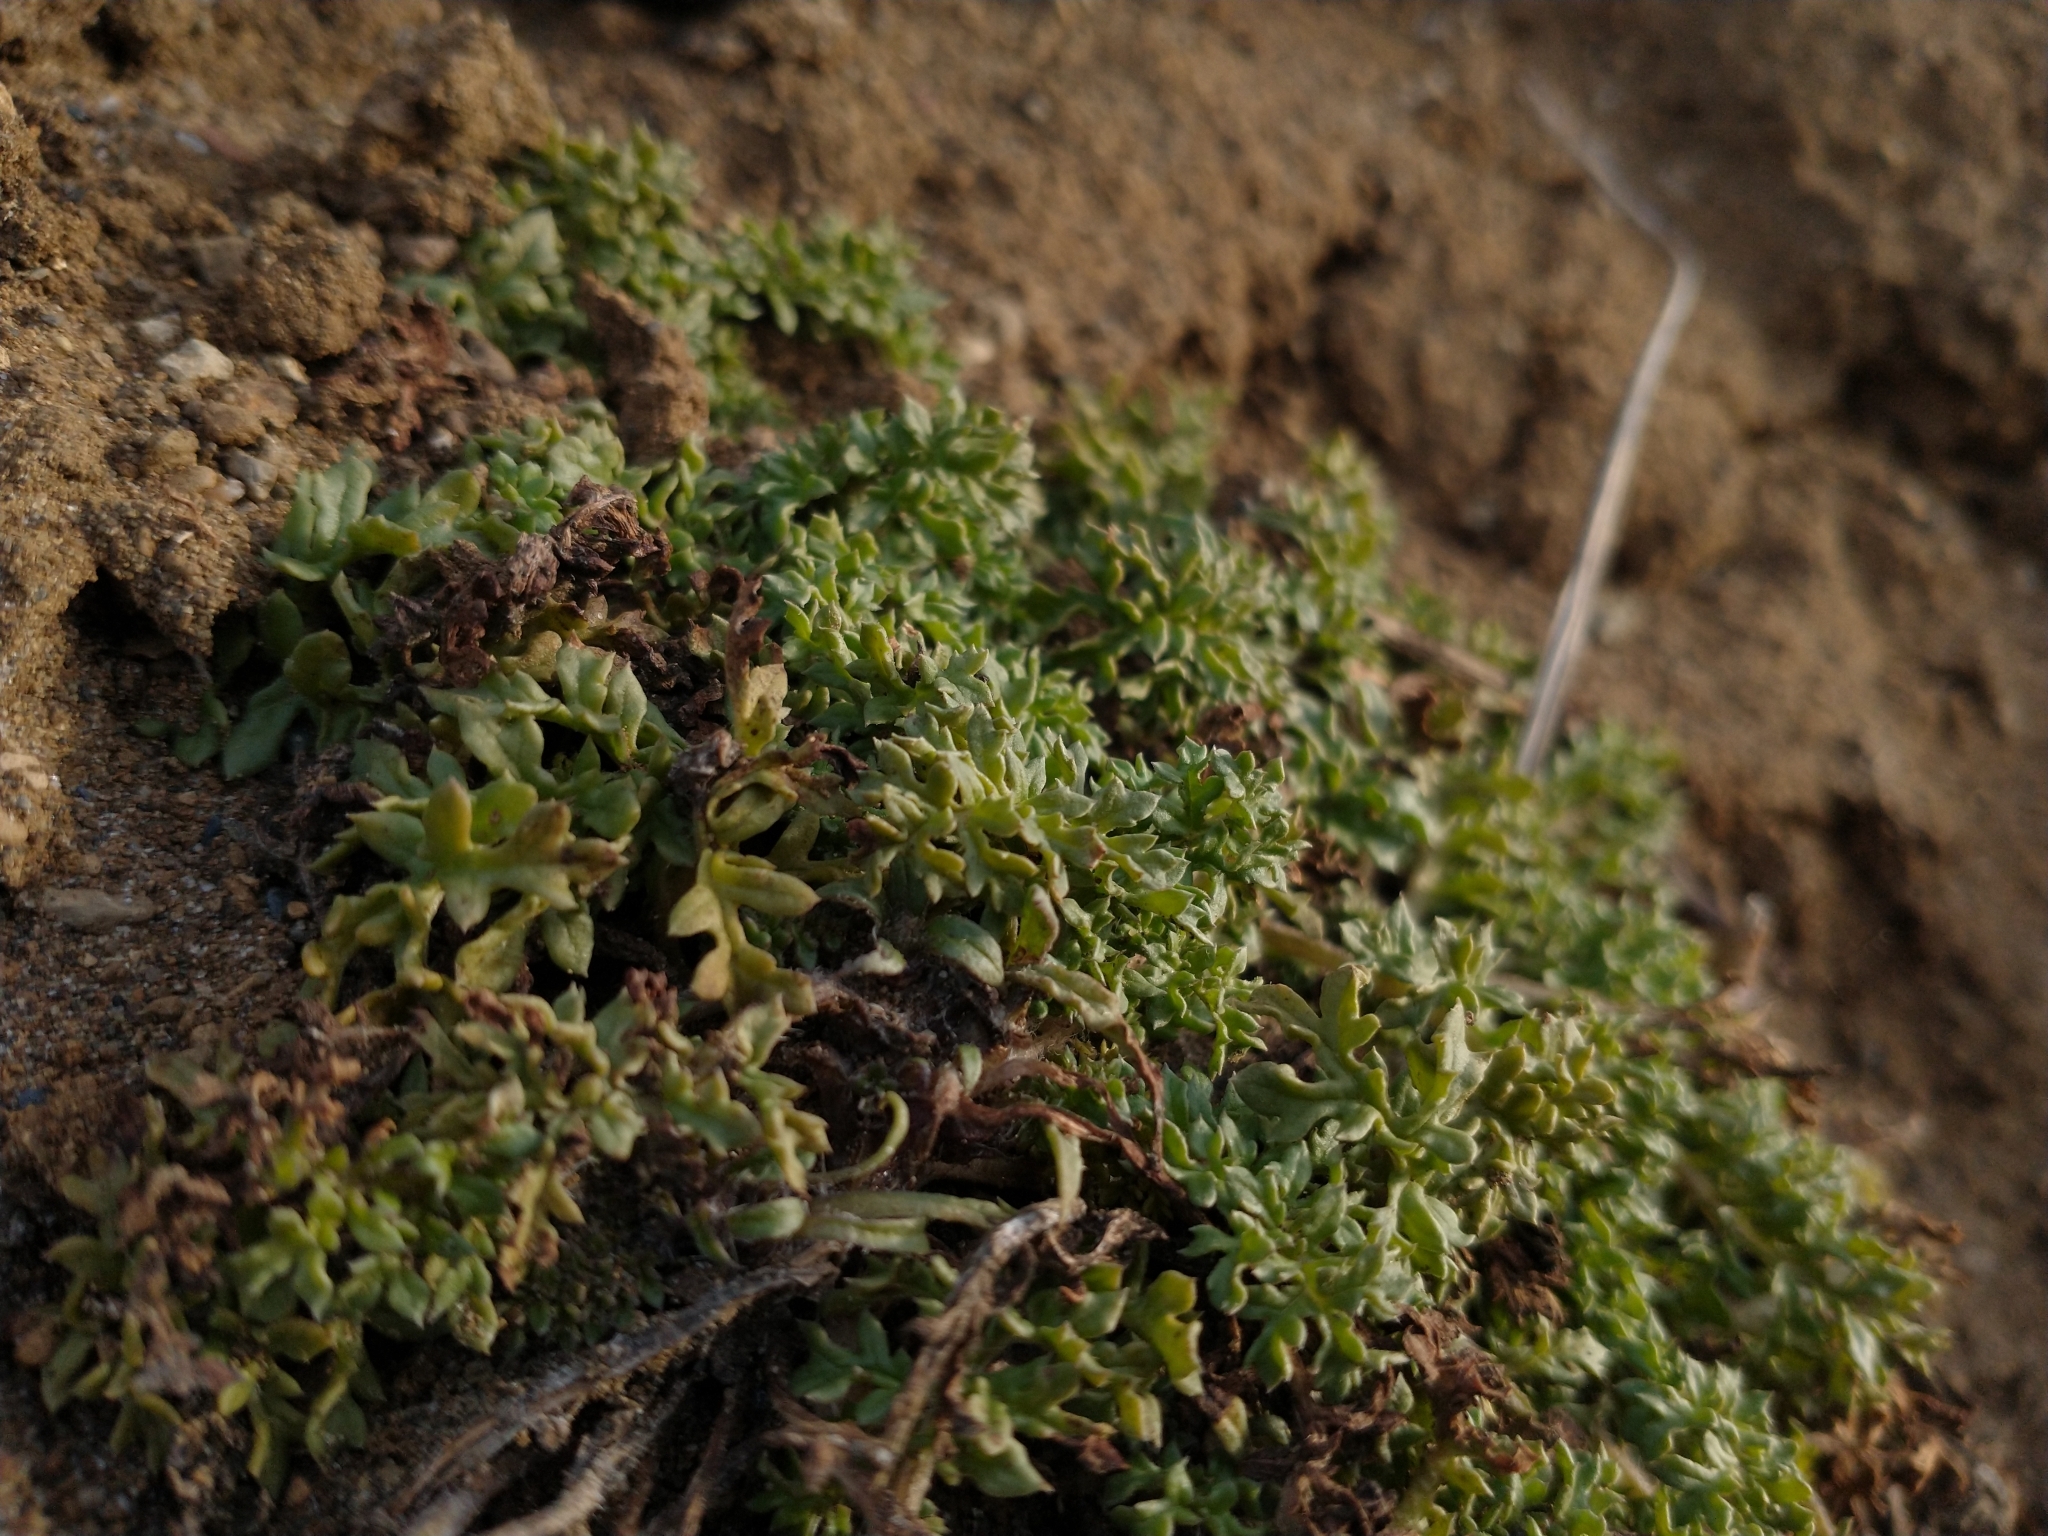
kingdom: Plantae
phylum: Tracheophyta
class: Magnoliopsida
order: Solanales
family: Solanaceae
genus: Jaborosa
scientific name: Jaborosa magellanica
